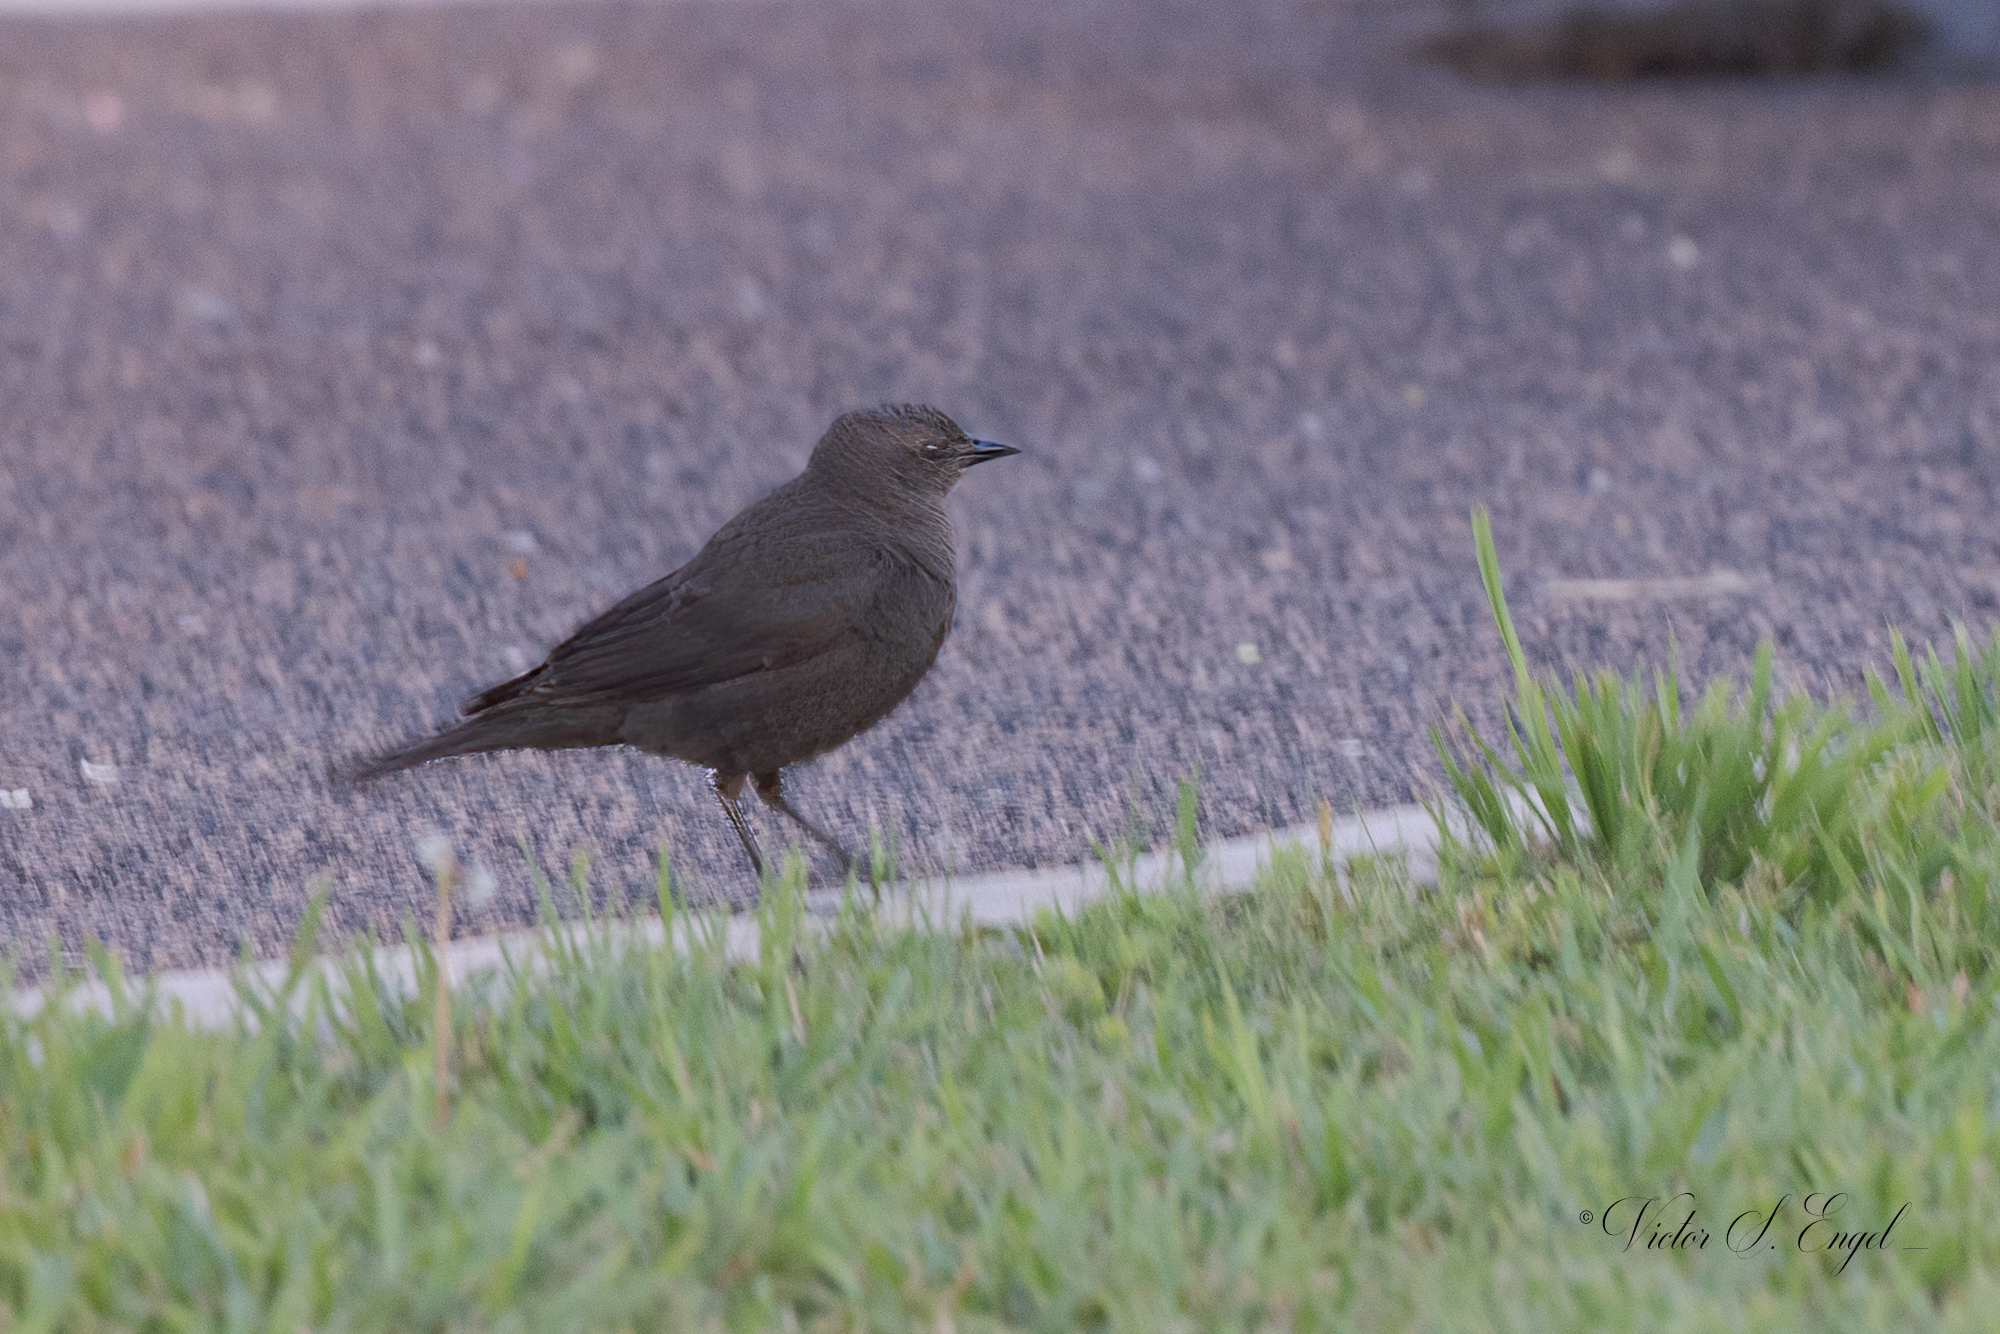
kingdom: Animalia
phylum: Chordata
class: Aves
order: Passeriformes
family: Icteridae
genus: Euphagus
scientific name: Euphagus cyanocephalus
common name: Brewer's blackbird
